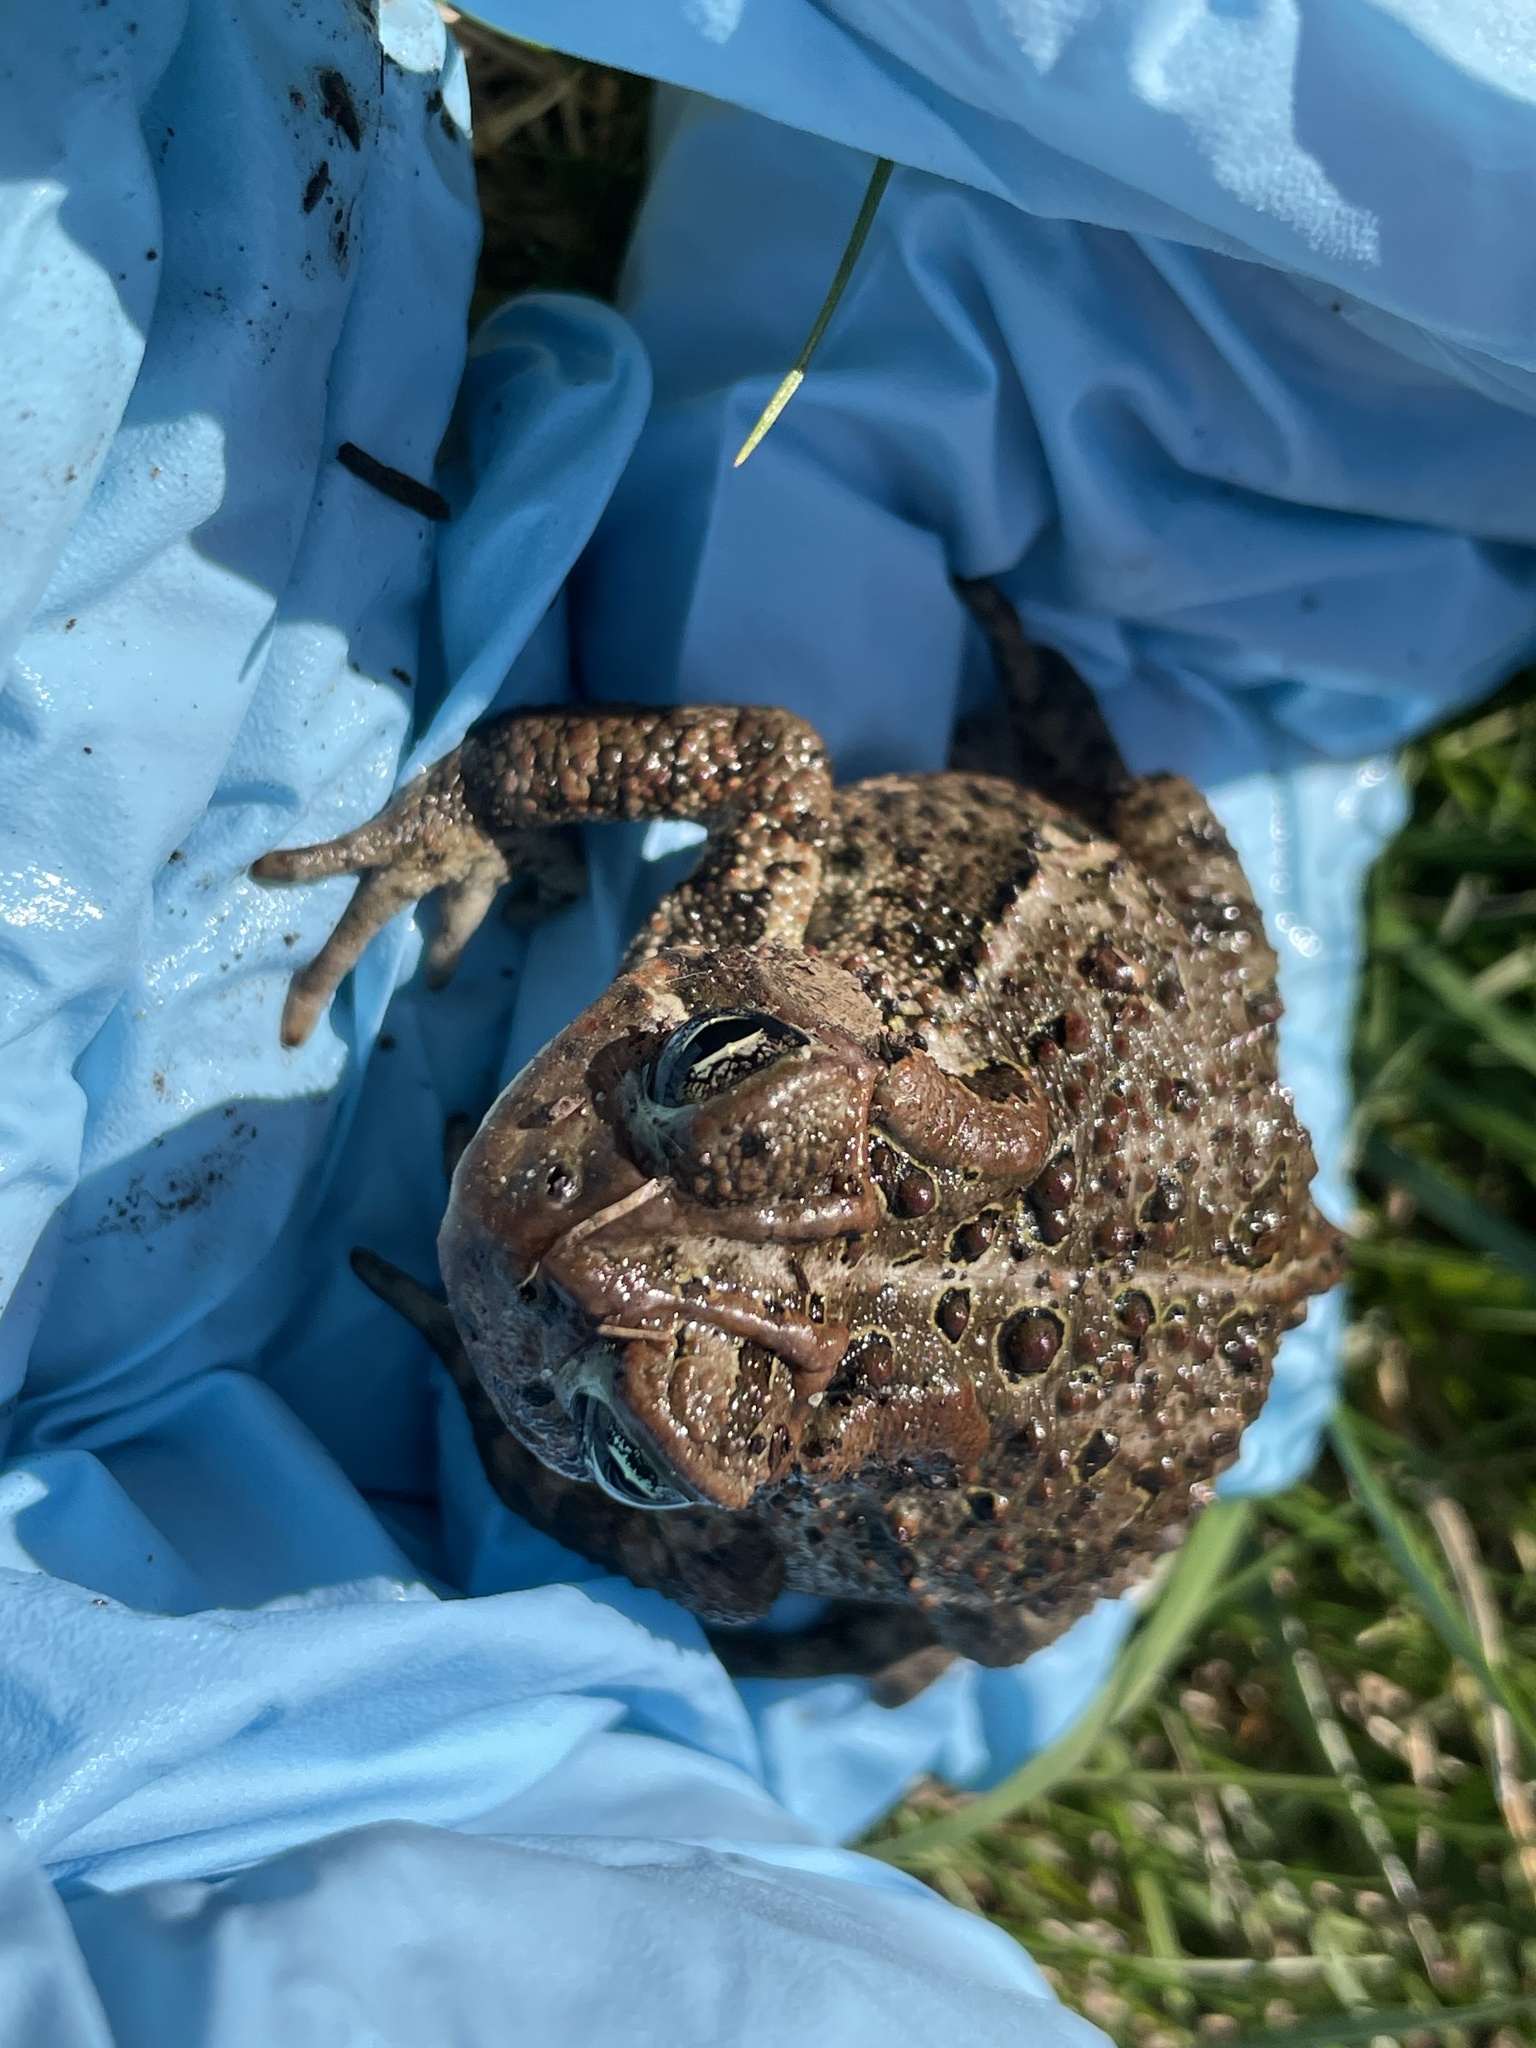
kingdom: Animalia
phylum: Chordata
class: Amphibia
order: Anura
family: Bufonidae
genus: Anaxyrus
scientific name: Anaxyrus americanus
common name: American toad
